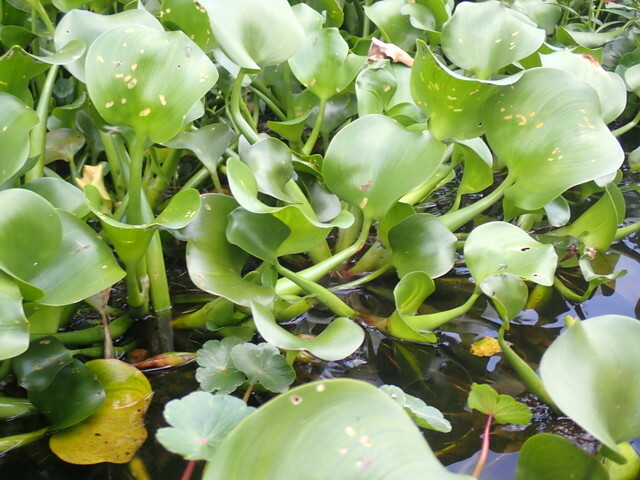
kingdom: Plantae
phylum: Tracheophyta
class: Liliopsida
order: Commelinales
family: Pontederiaceae
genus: Pontederia
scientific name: Pontederia crassipes
